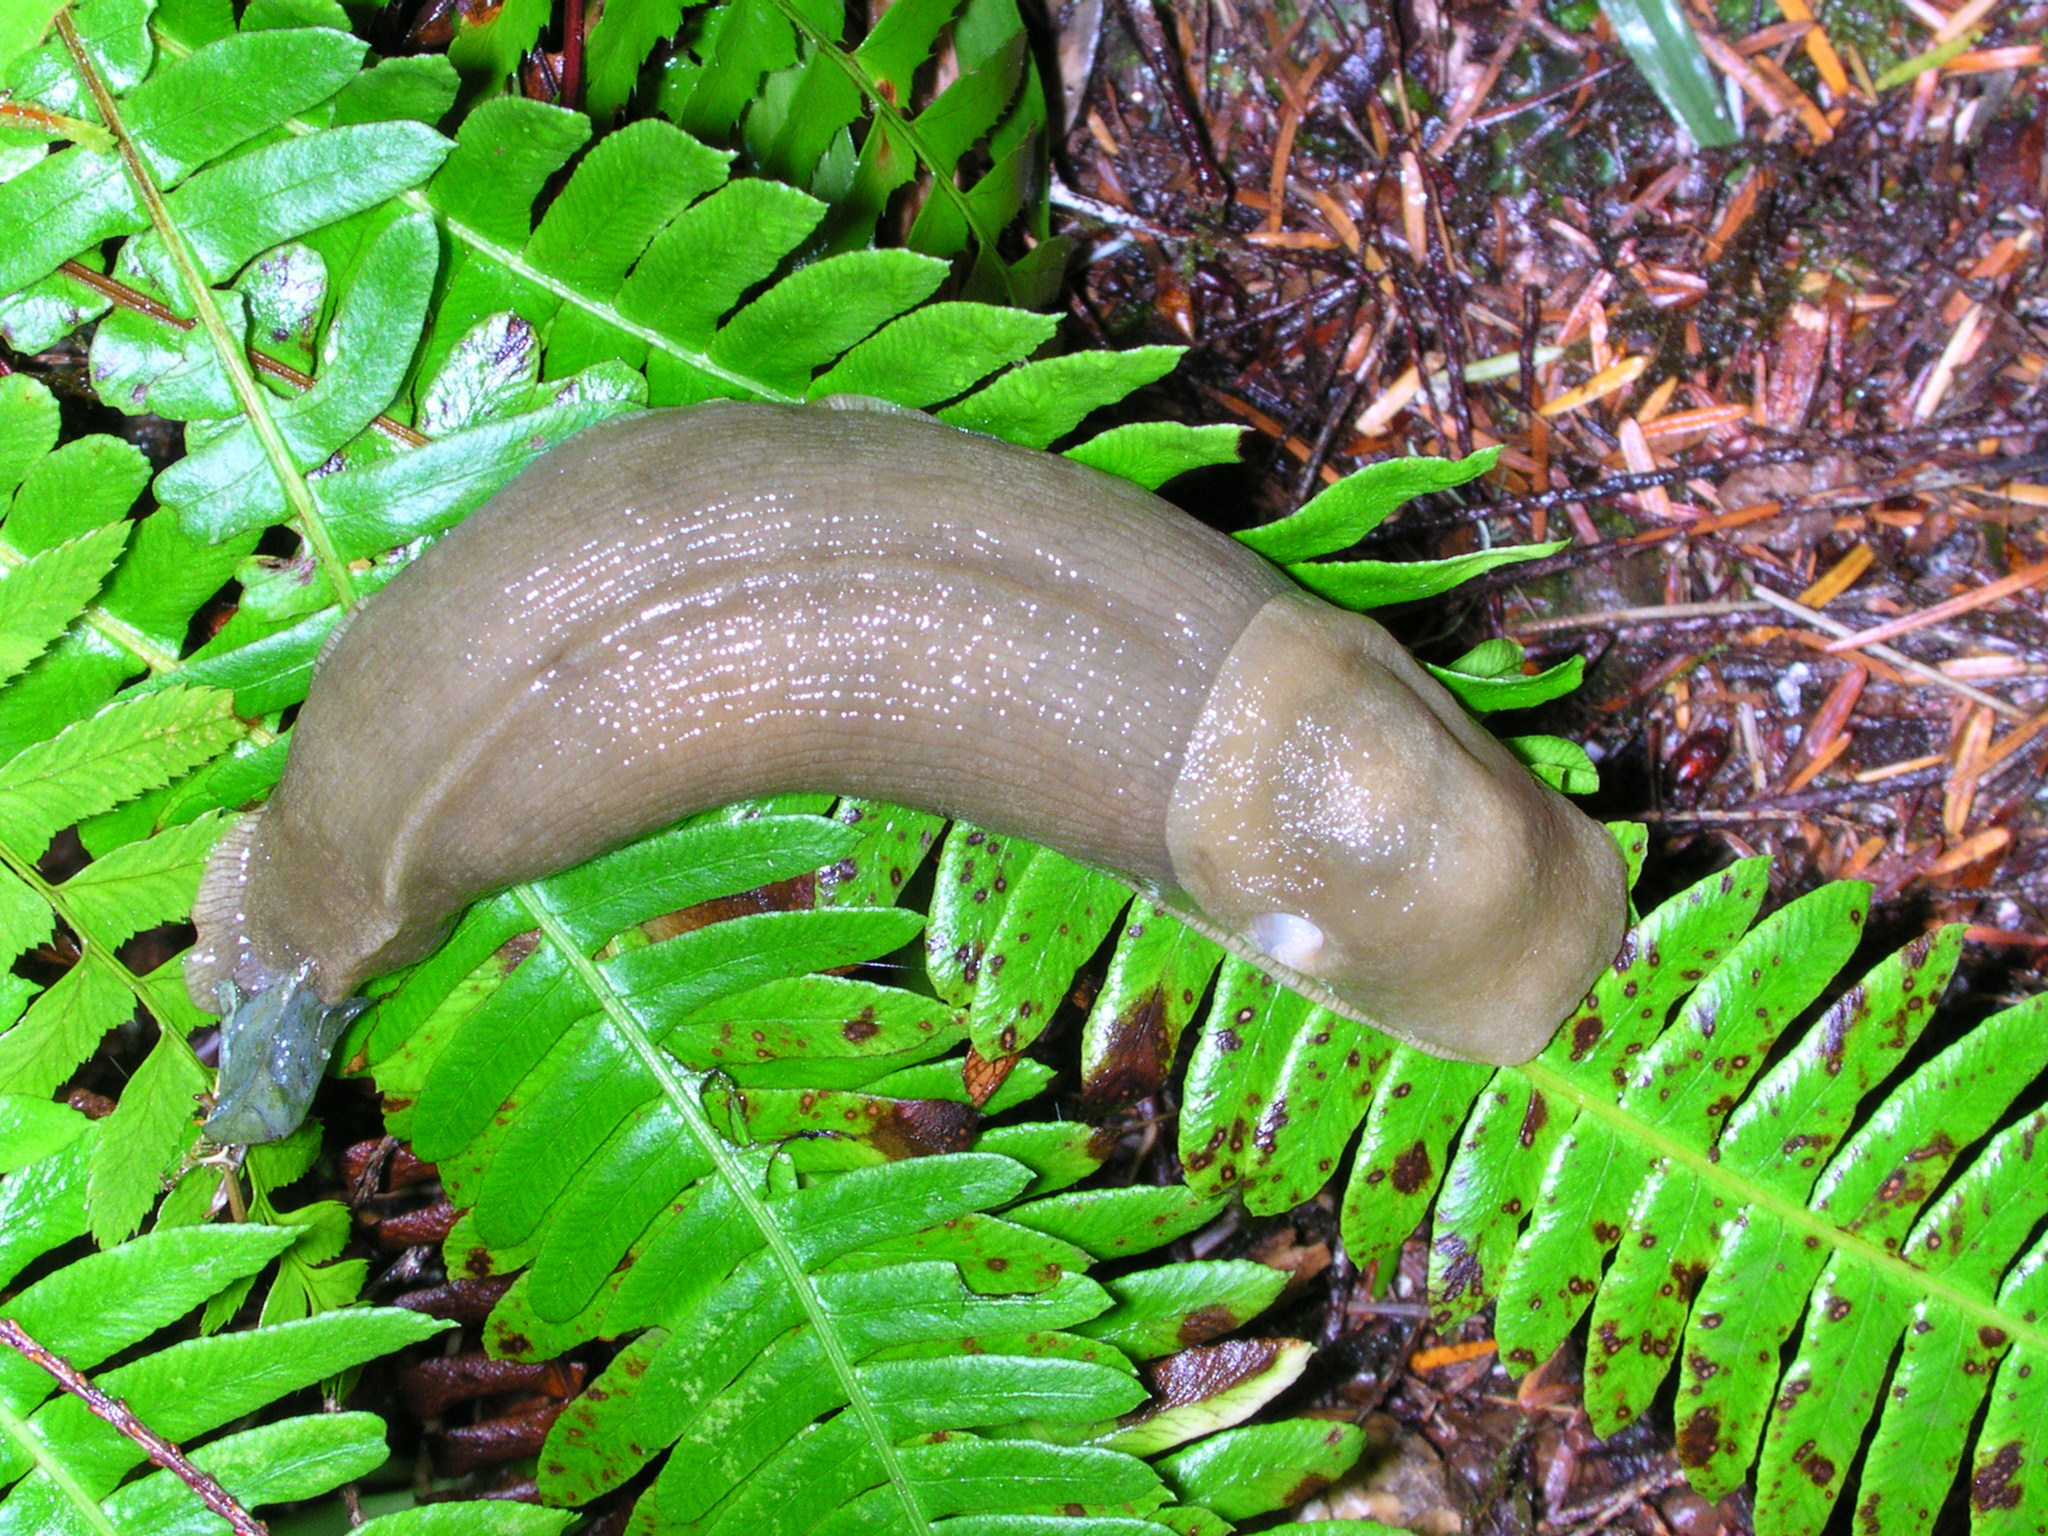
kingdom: Plantae
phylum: Tracheophyta
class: Polypodiopsida
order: Polypodiales
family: Blechnaceae
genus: Struthiopteris
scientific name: Struthiopteris spicant
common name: Deer fern
